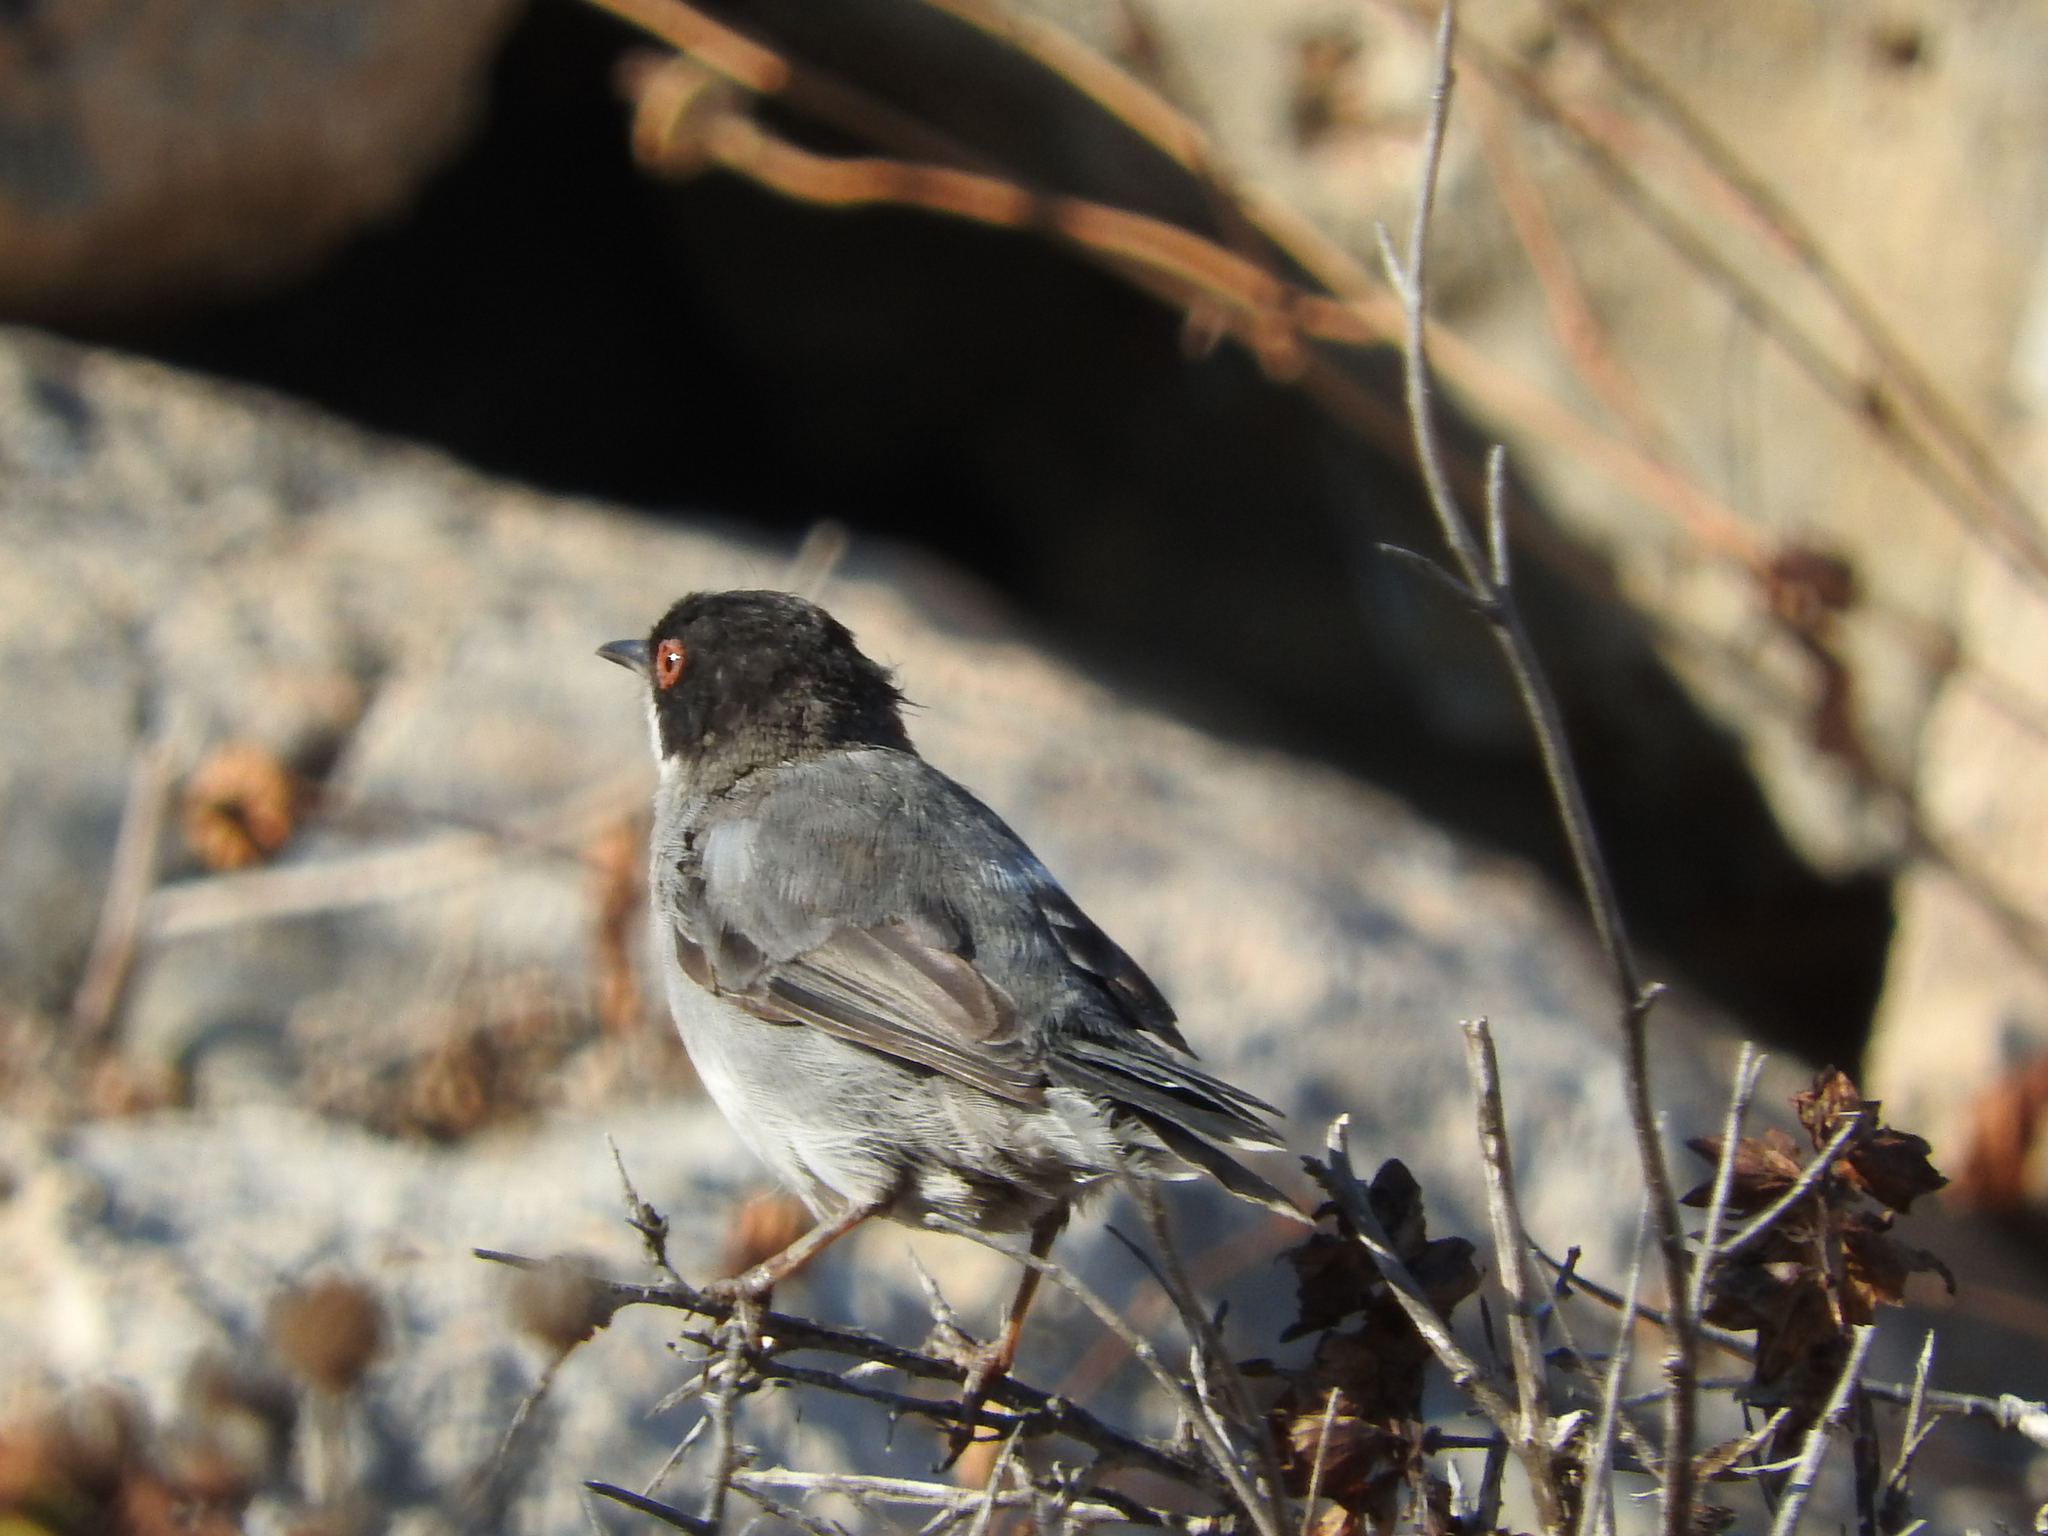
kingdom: Animalia
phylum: Chordata
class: Aves
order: Passeriformes
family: Sylviidae
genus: Curruca
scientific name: Curruca melanocephala
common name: Sardinian warbler
